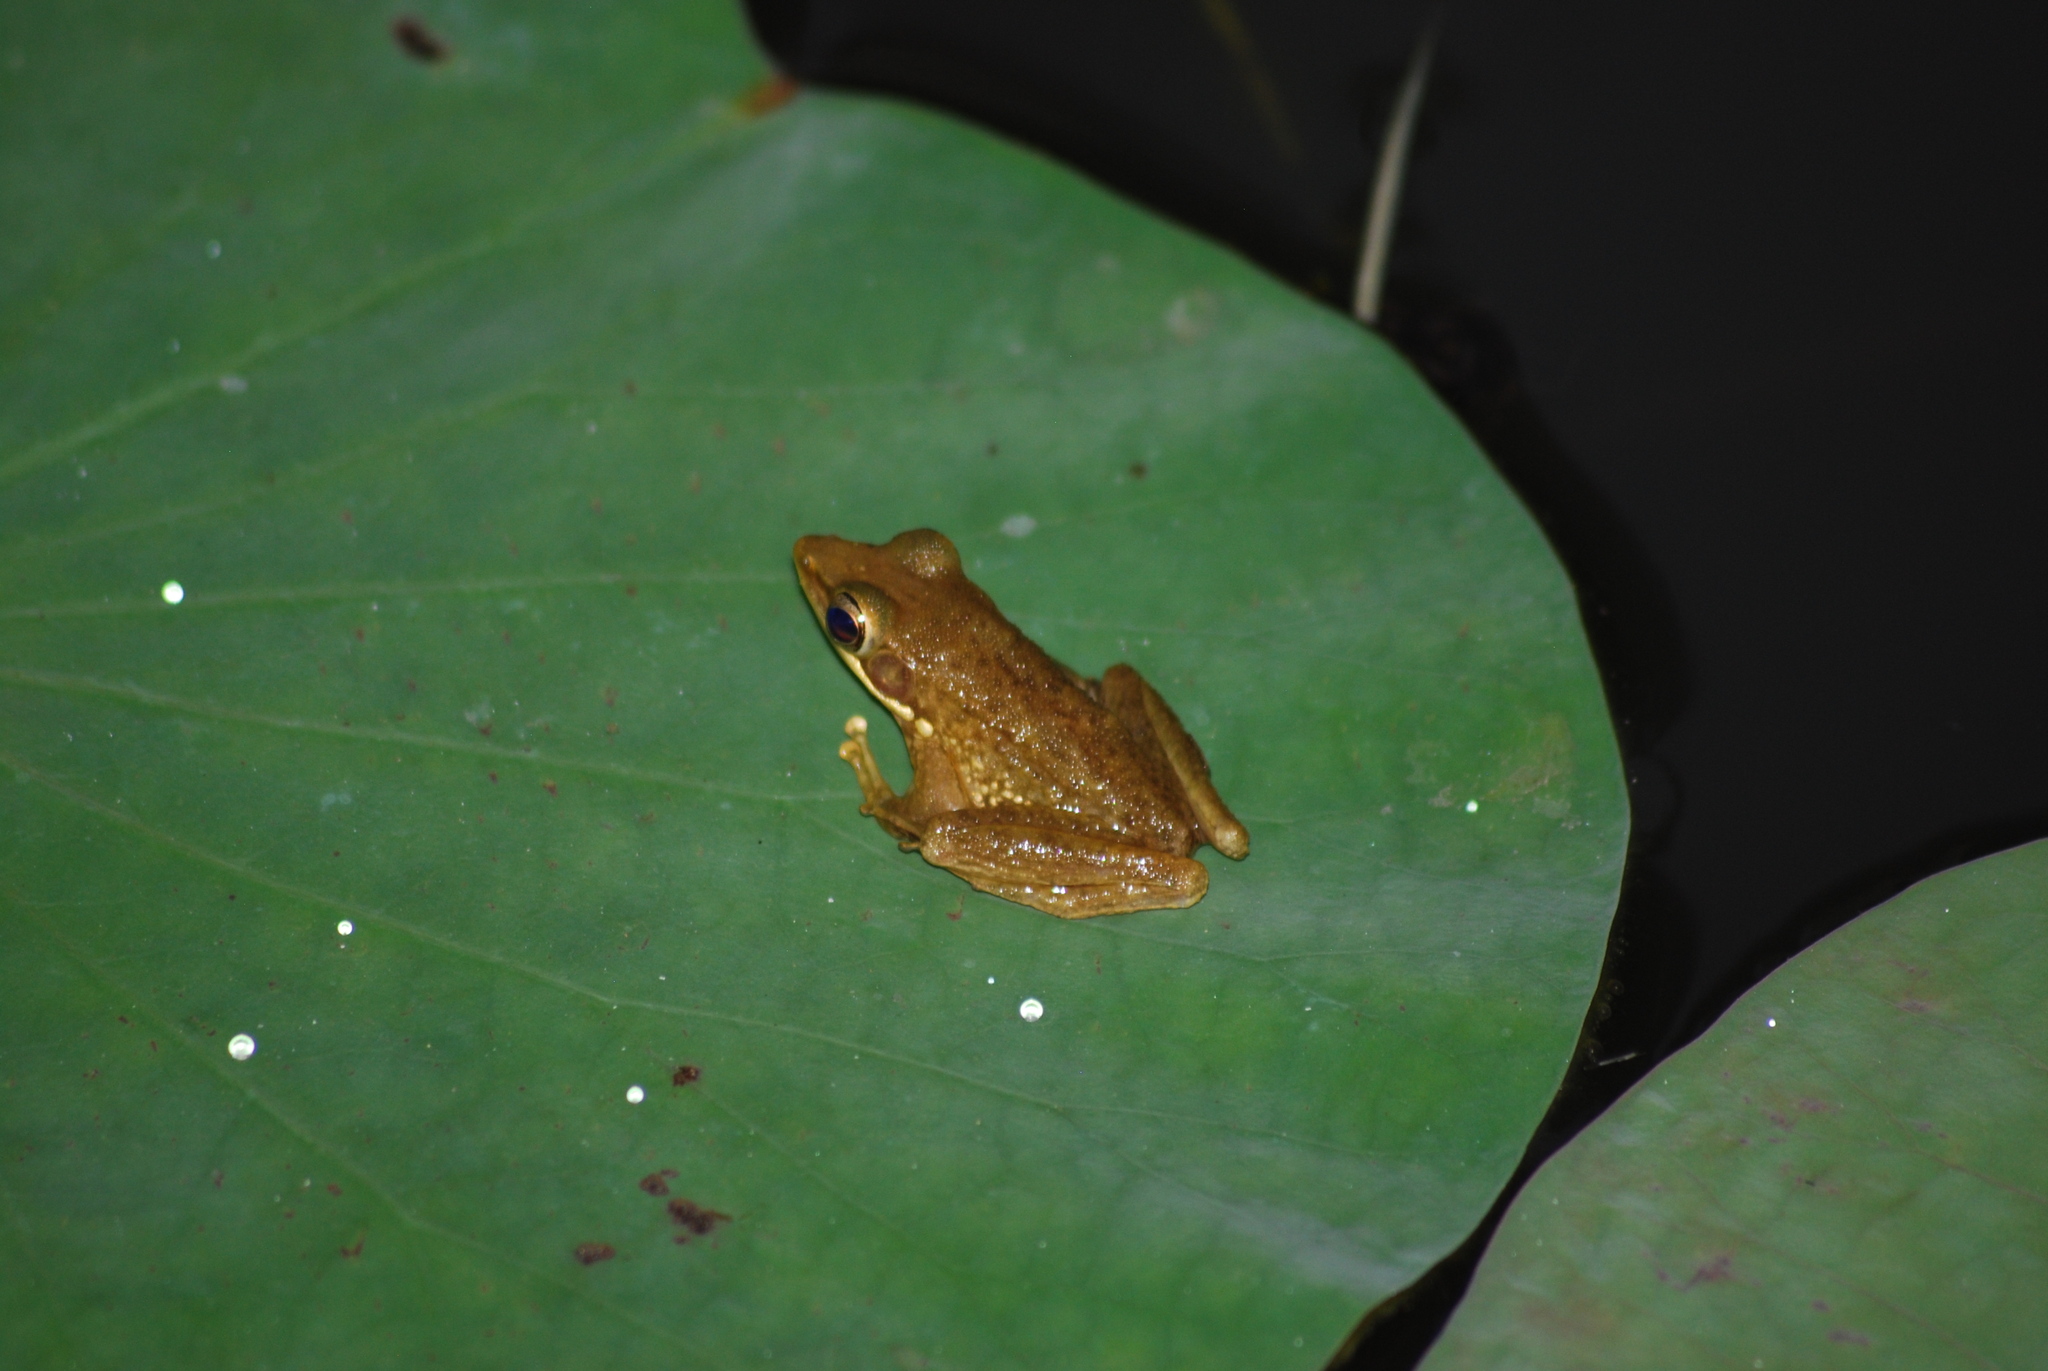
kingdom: Animalia
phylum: Chordata
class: Amphibia
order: Anura
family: Ranidae
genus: Chalcorana
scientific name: Chalcorana chalconota
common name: Schlegel's frog
